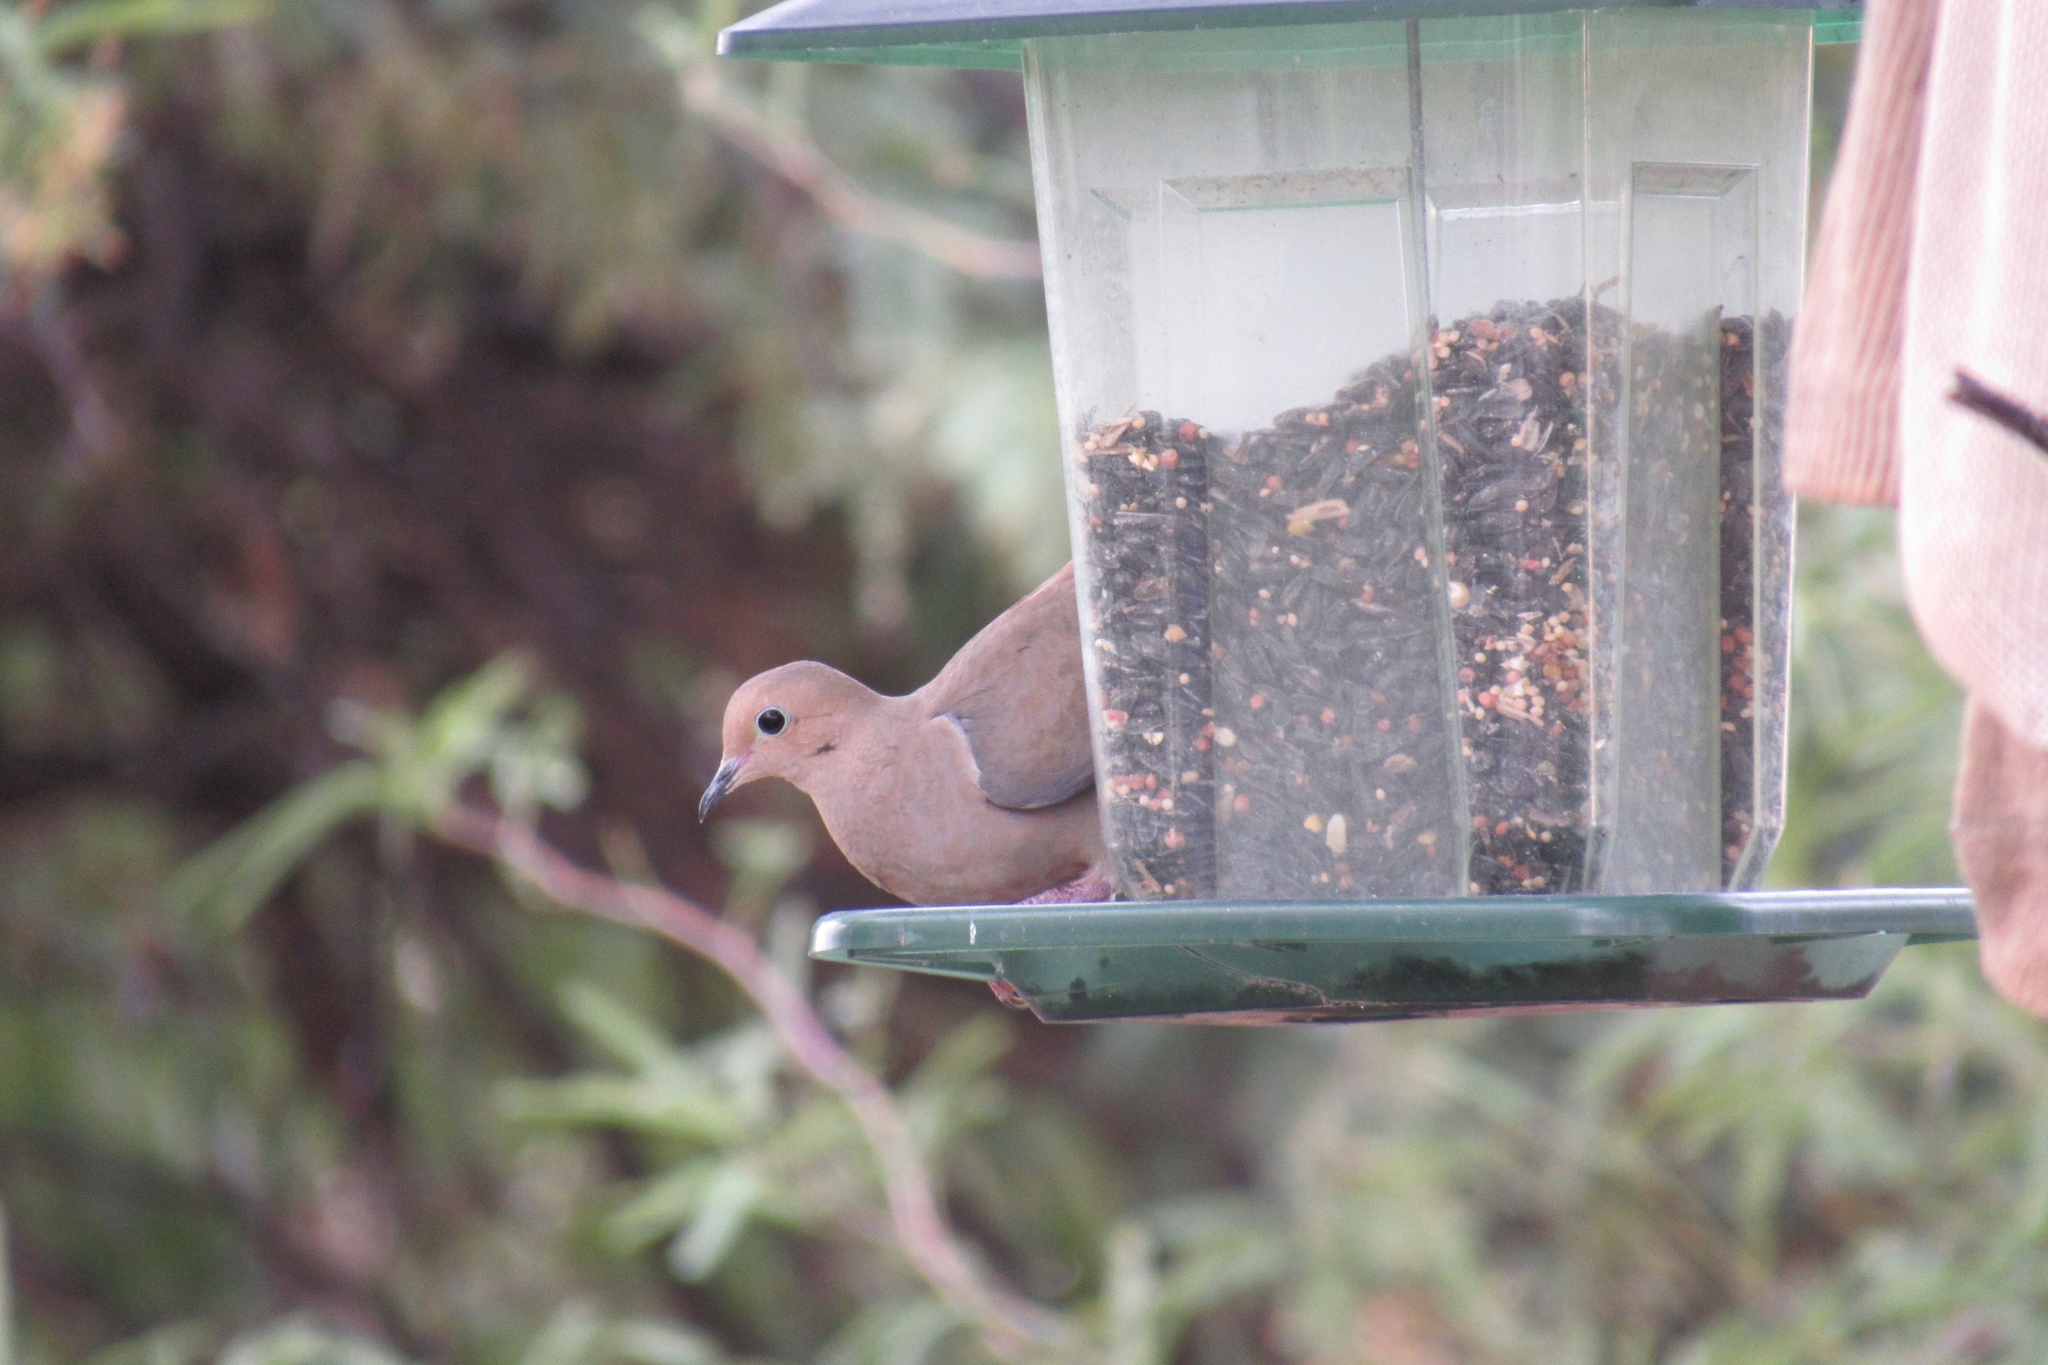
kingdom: Animalia
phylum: Chordata
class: Aves
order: Columbiformes
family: Columbidae
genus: Zenaida
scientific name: Zenaida macroura
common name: Mourning dove
